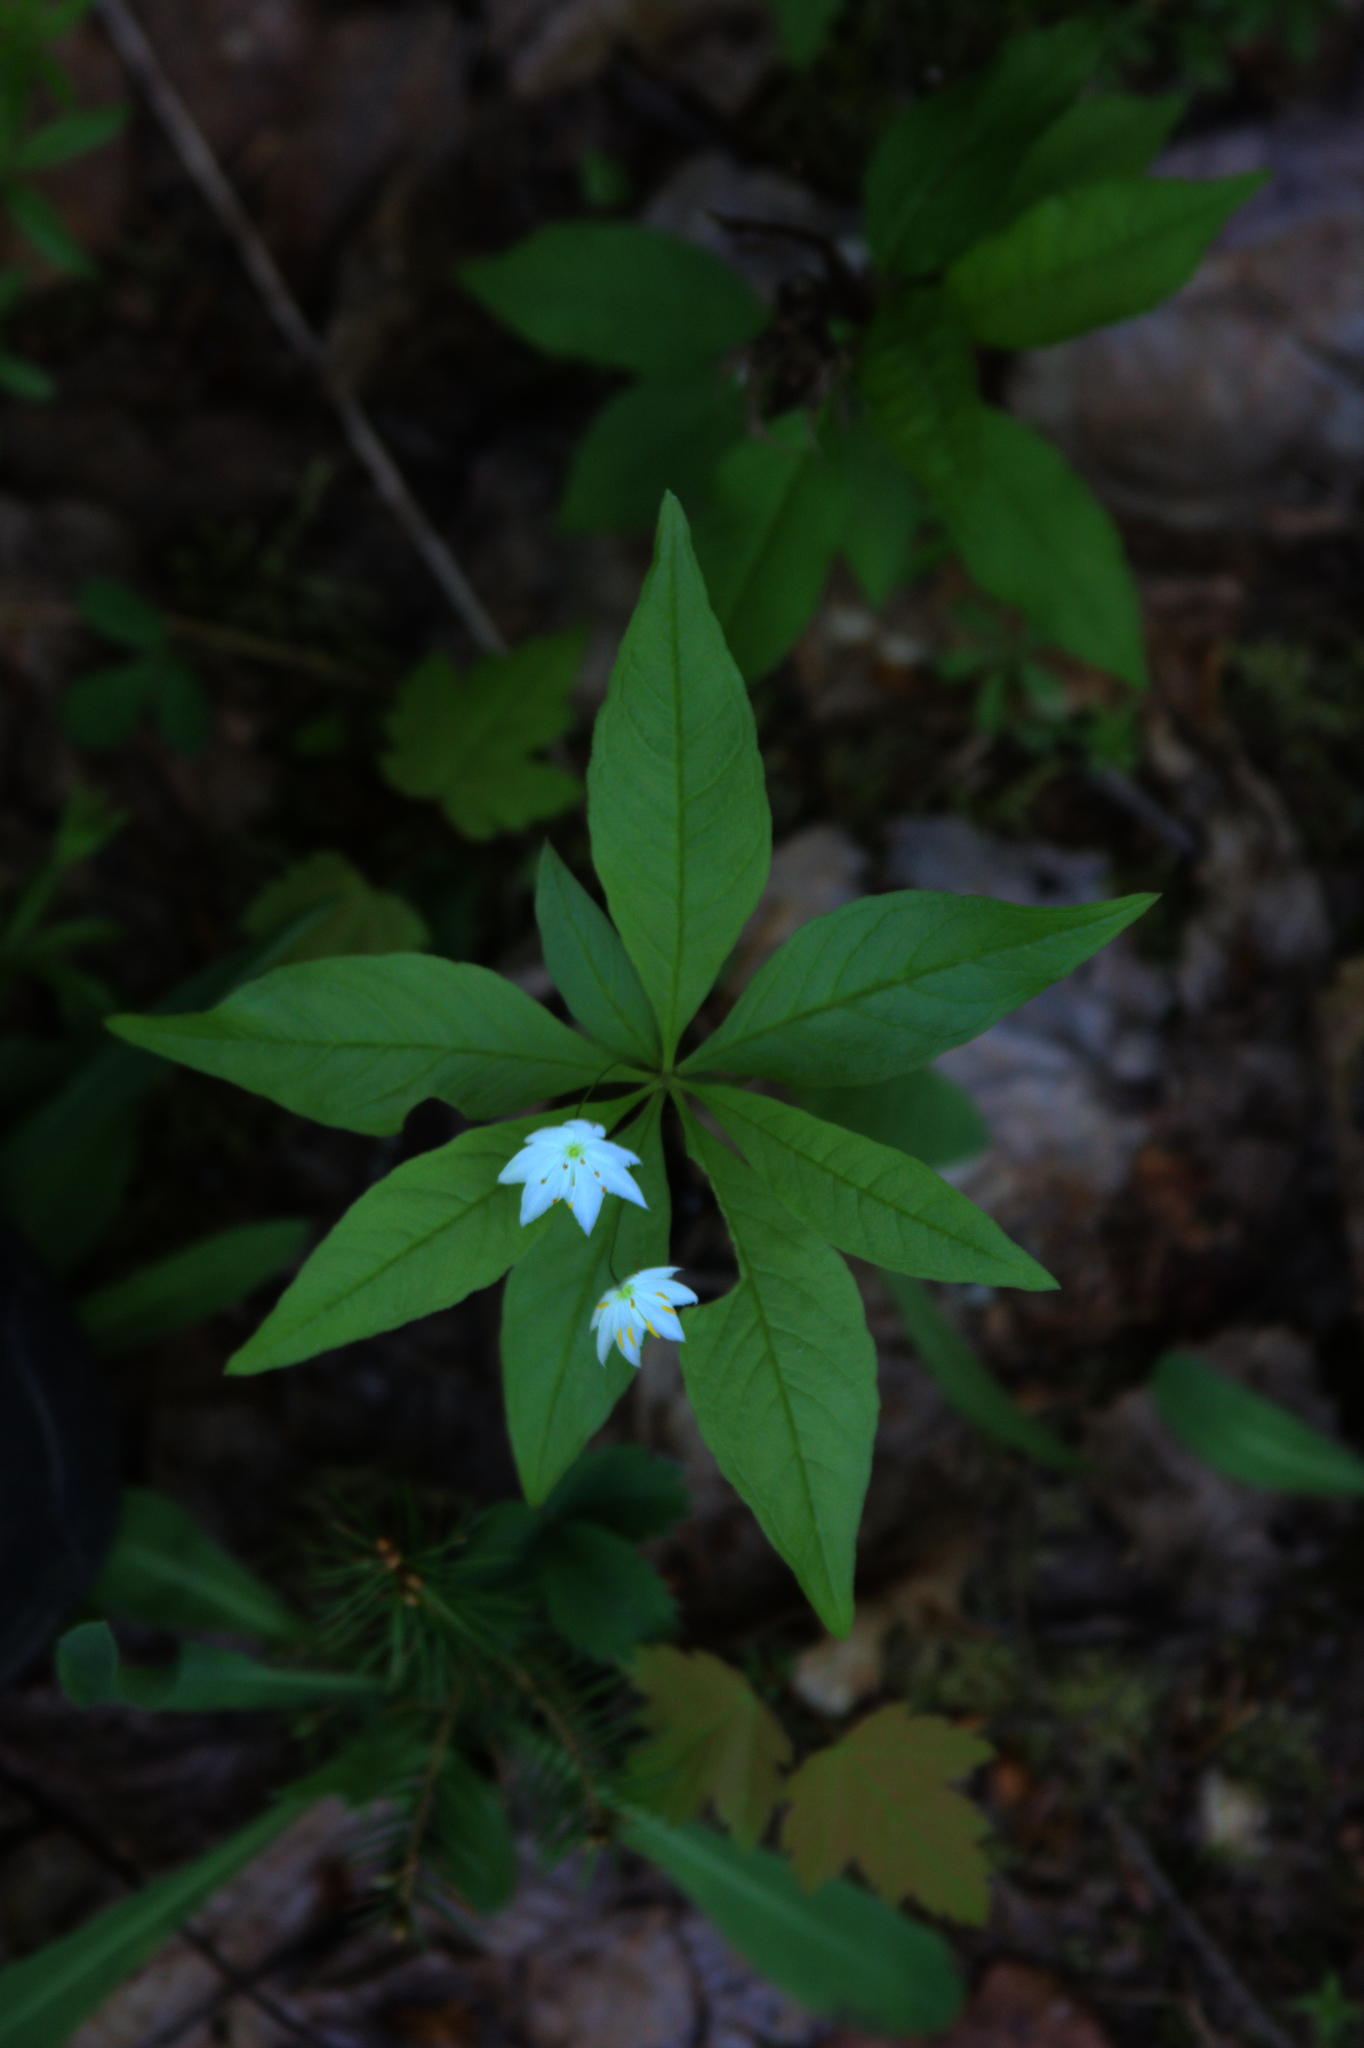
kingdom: Plantae
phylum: Tracheophyta
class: Magnoliopsida
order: Ericales
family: Primulaceae
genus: Lysimachia
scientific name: Lysimachia borealis
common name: American starflower
